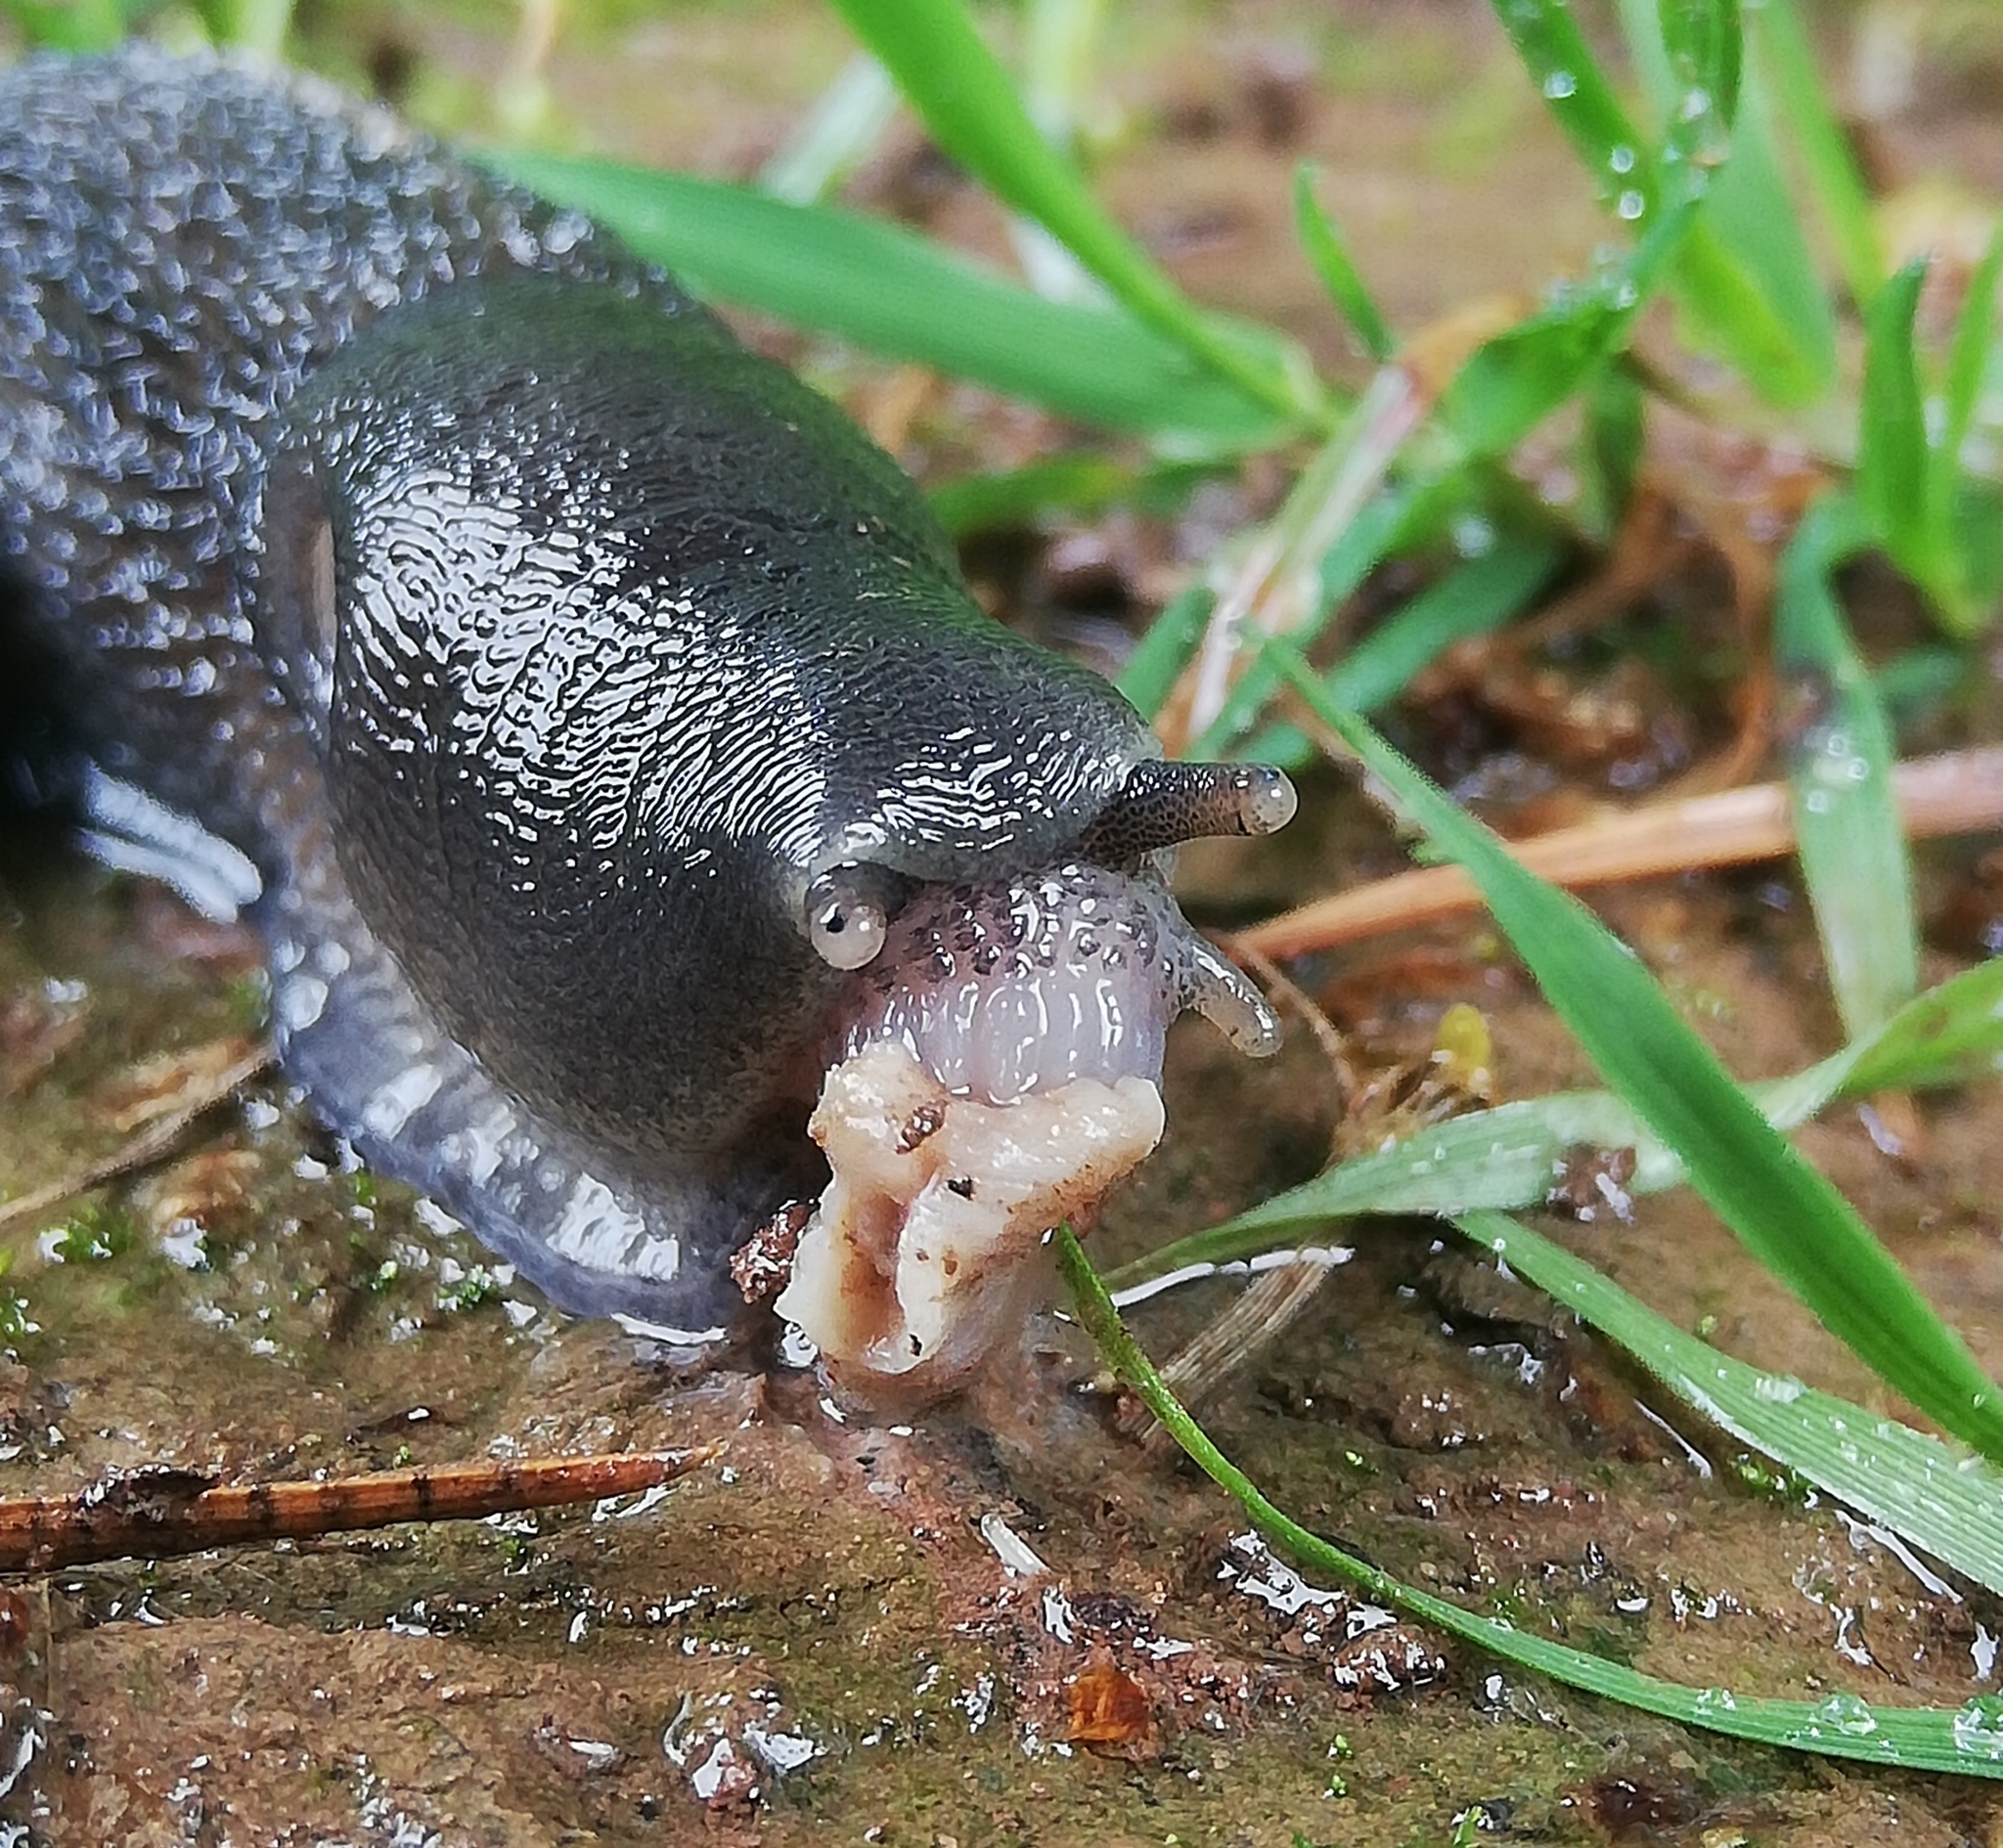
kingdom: Animalia
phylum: Mollusca
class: Gastropoda
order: Stylommatophora
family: Limacidae
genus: Limax
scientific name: Limax cinereoniger
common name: Ash-black slug
